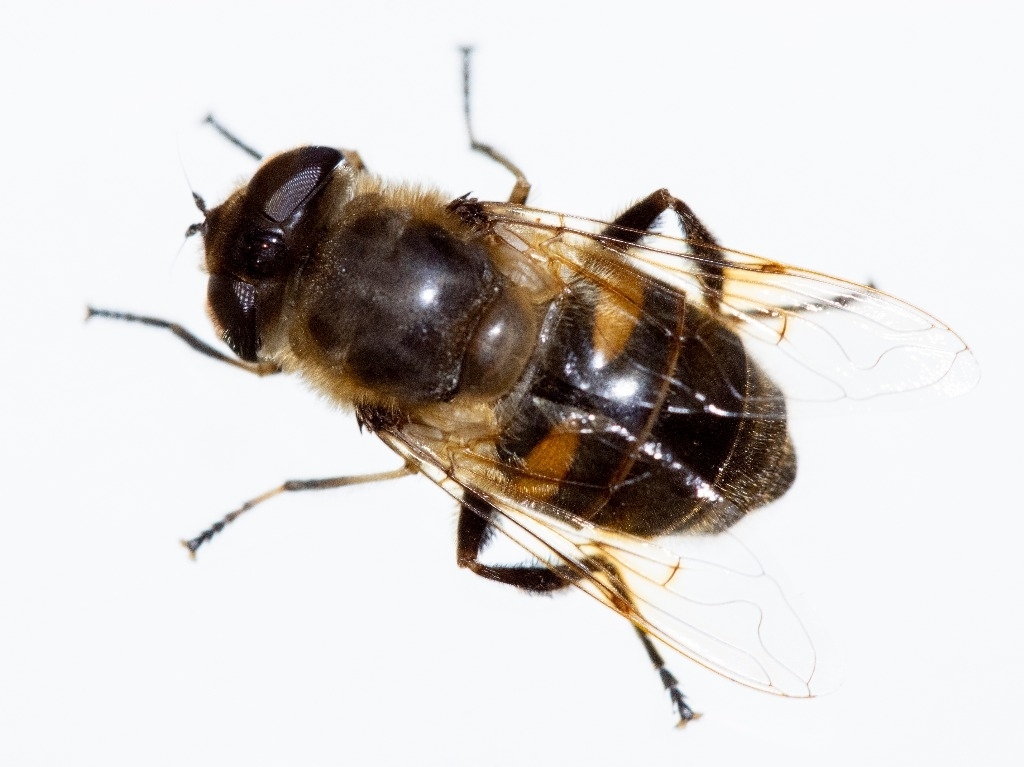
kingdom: Animalia
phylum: Arthropoda
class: Insecta
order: Diptera
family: Syrphidae
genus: Eristalis
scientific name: Eristalis tenax
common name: Drone fly
